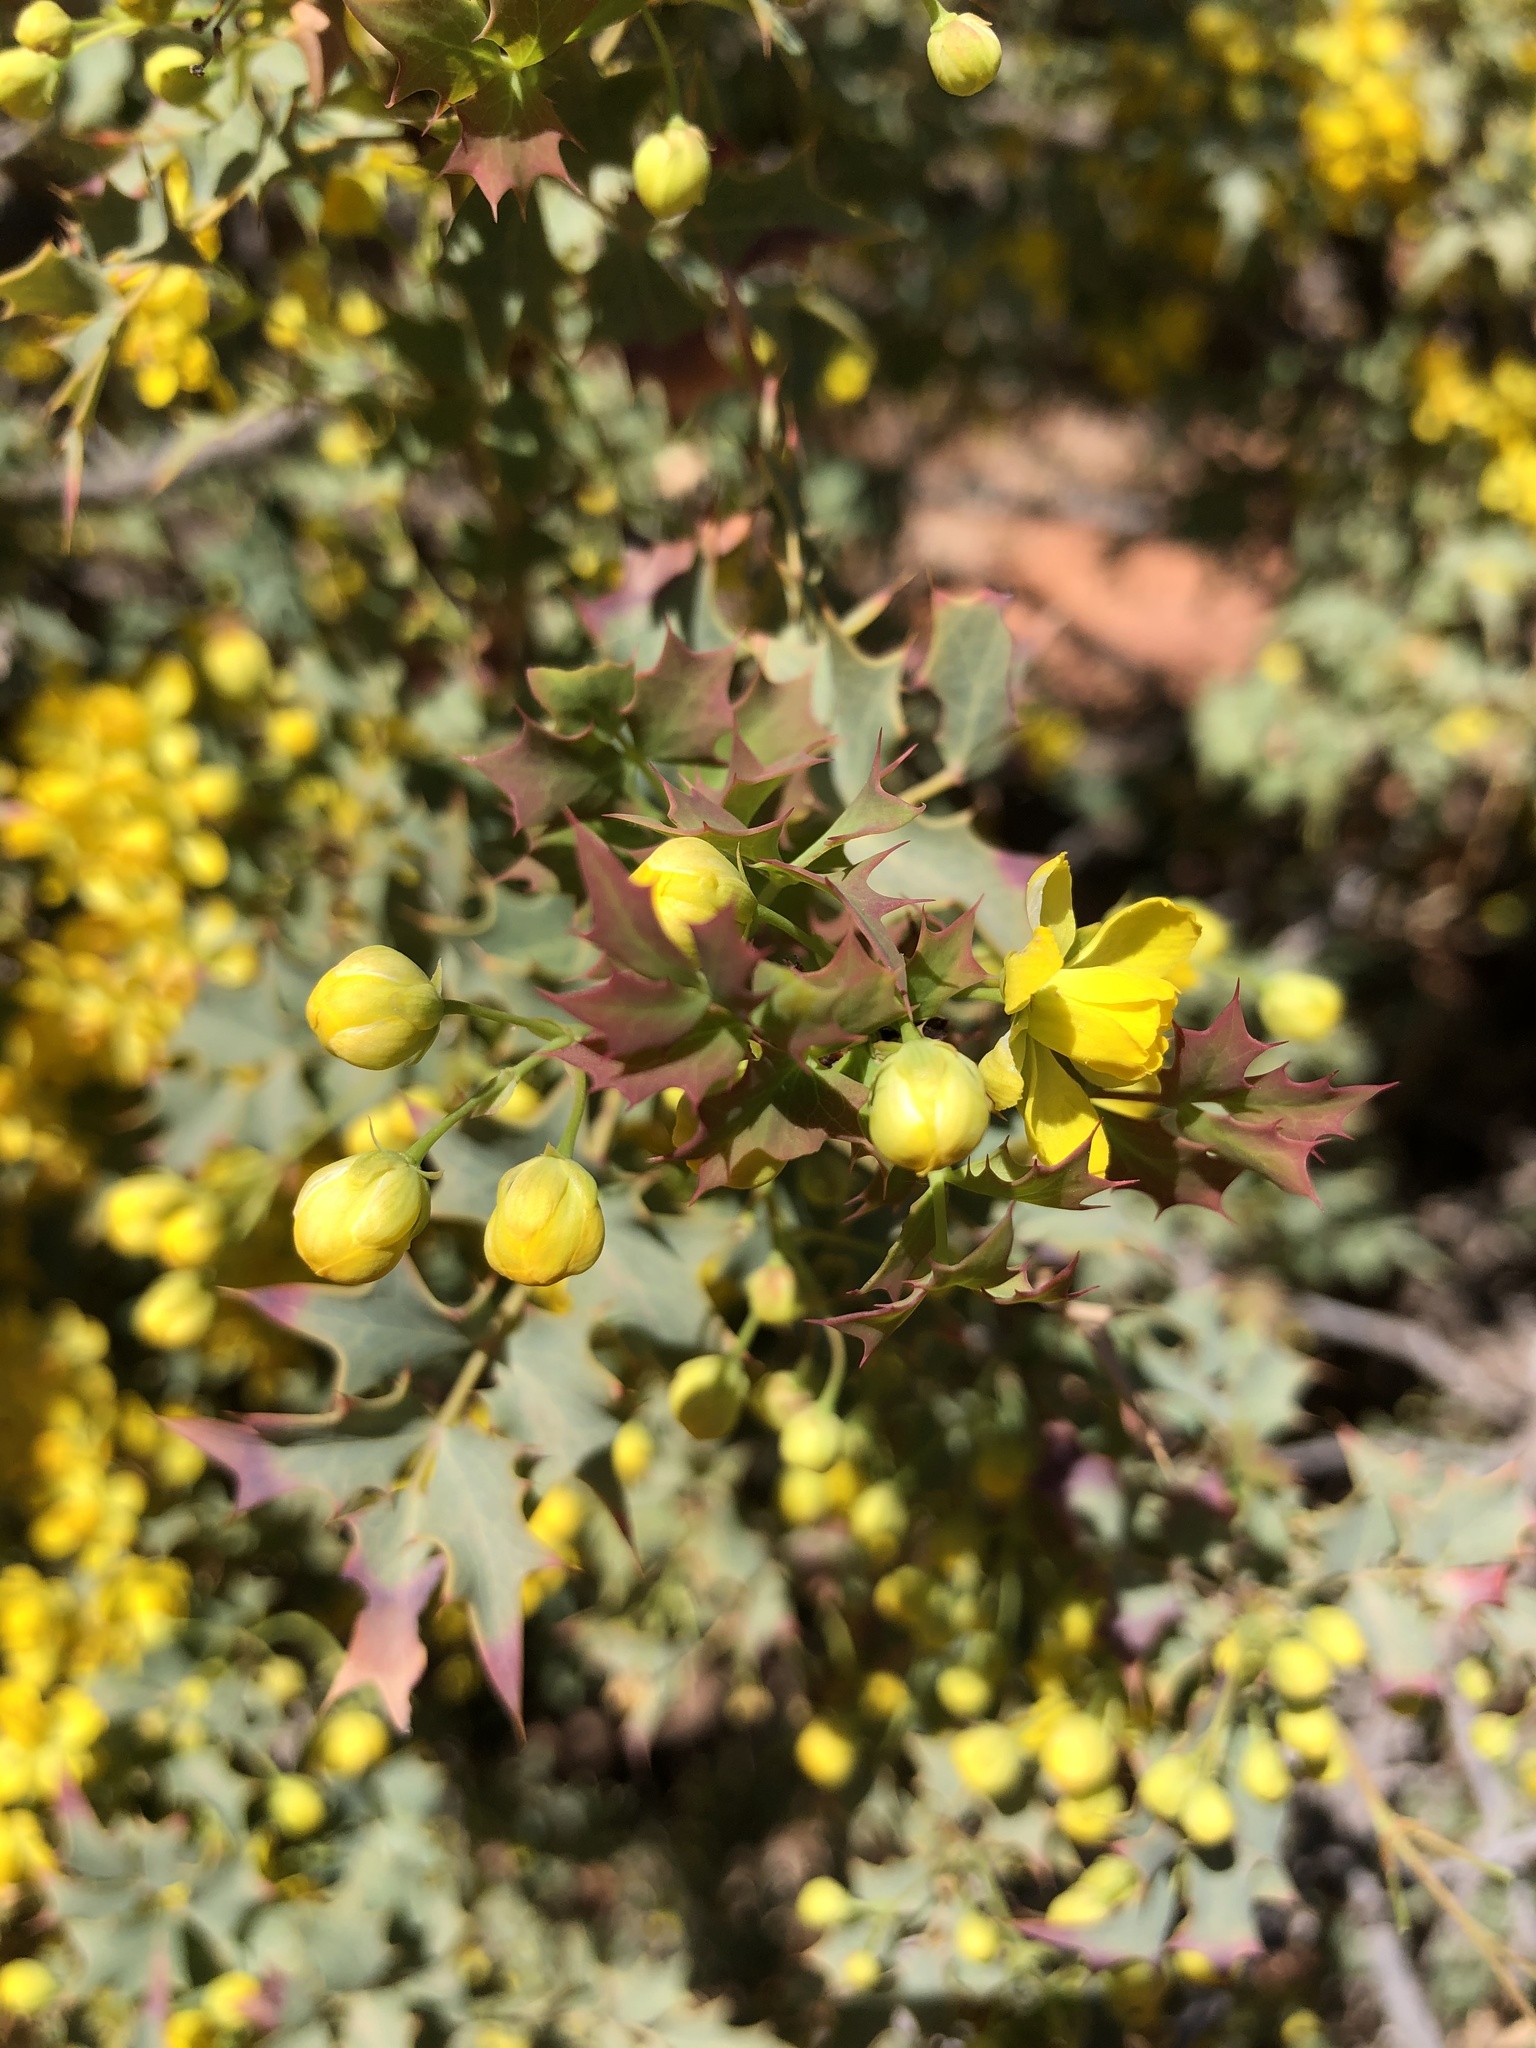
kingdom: Plantae
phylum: Tracheophyta
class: Magnoliopsida
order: Ranunculales
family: Berberidaceae
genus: Alloberberis
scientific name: Alloberberis fremontii
